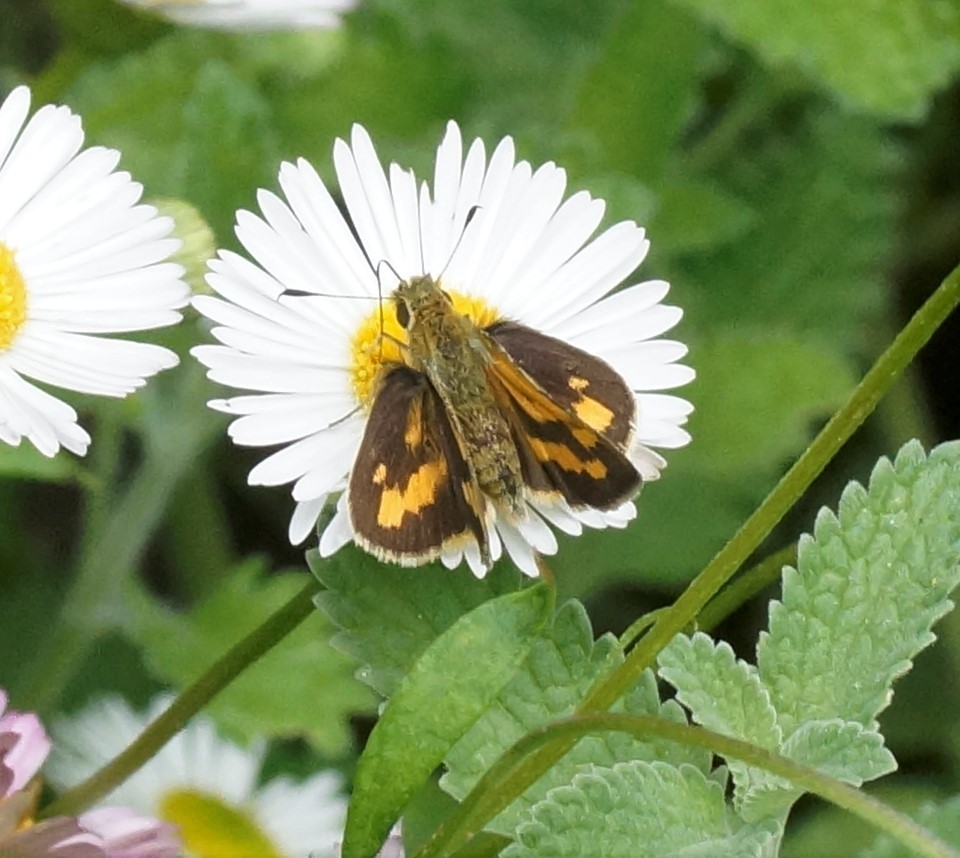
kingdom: Animalia
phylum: Arthropoda
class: Insecta
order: Lepidoptera
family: Hesperiidae
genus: Ocybadistes
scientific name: Ocybadistes walkeri
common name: Yellow-banded dart
